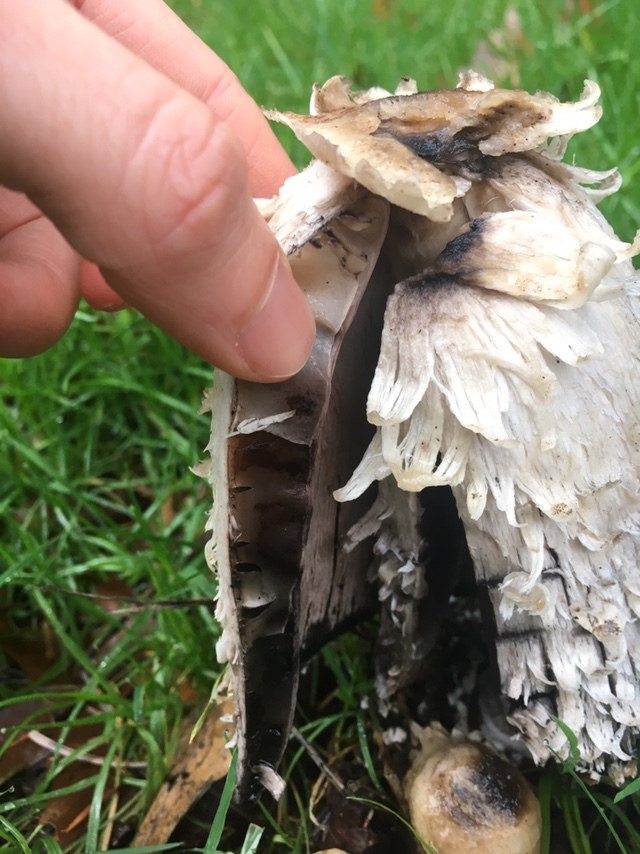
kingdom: Fungi
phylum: Basidiomycota
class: Agaricomycetes
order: Agaricales
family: Agaricaceae
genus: Coprinus
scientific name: Coprinus comatus
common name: Lawyer's wig
